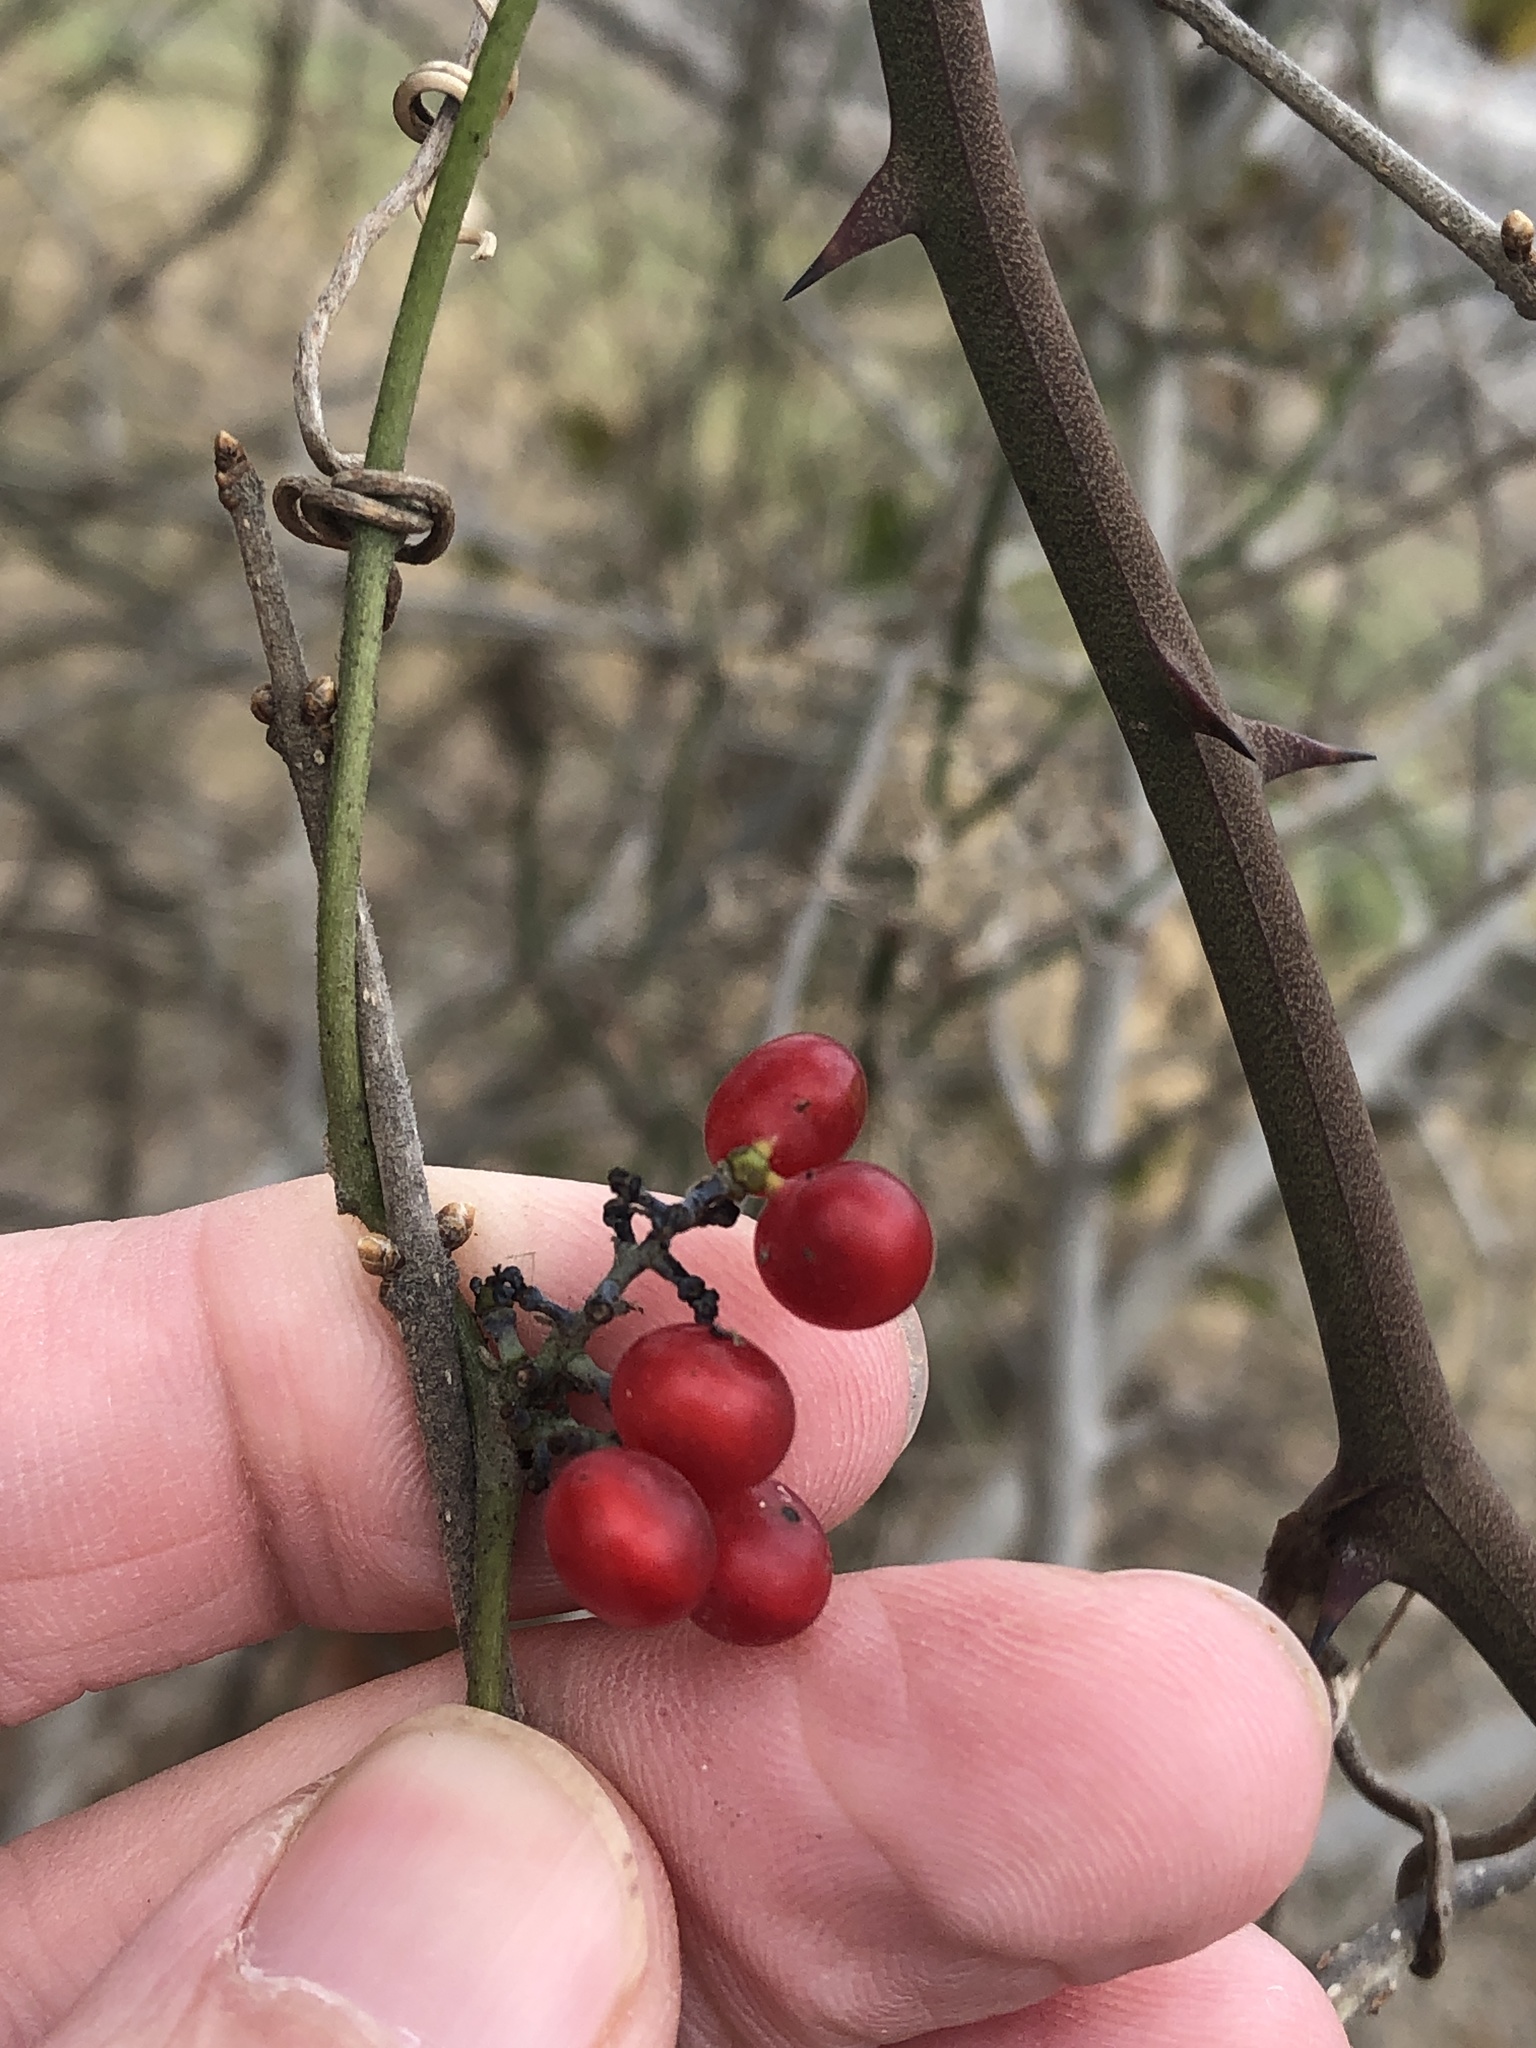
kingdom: Plantae
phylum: Tracheophyta
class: Magnoliopsida
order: Ranunculales
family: Menispermaceae
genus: Cocculus
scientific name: Cocculus carolinus
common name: Carolina moonseed
